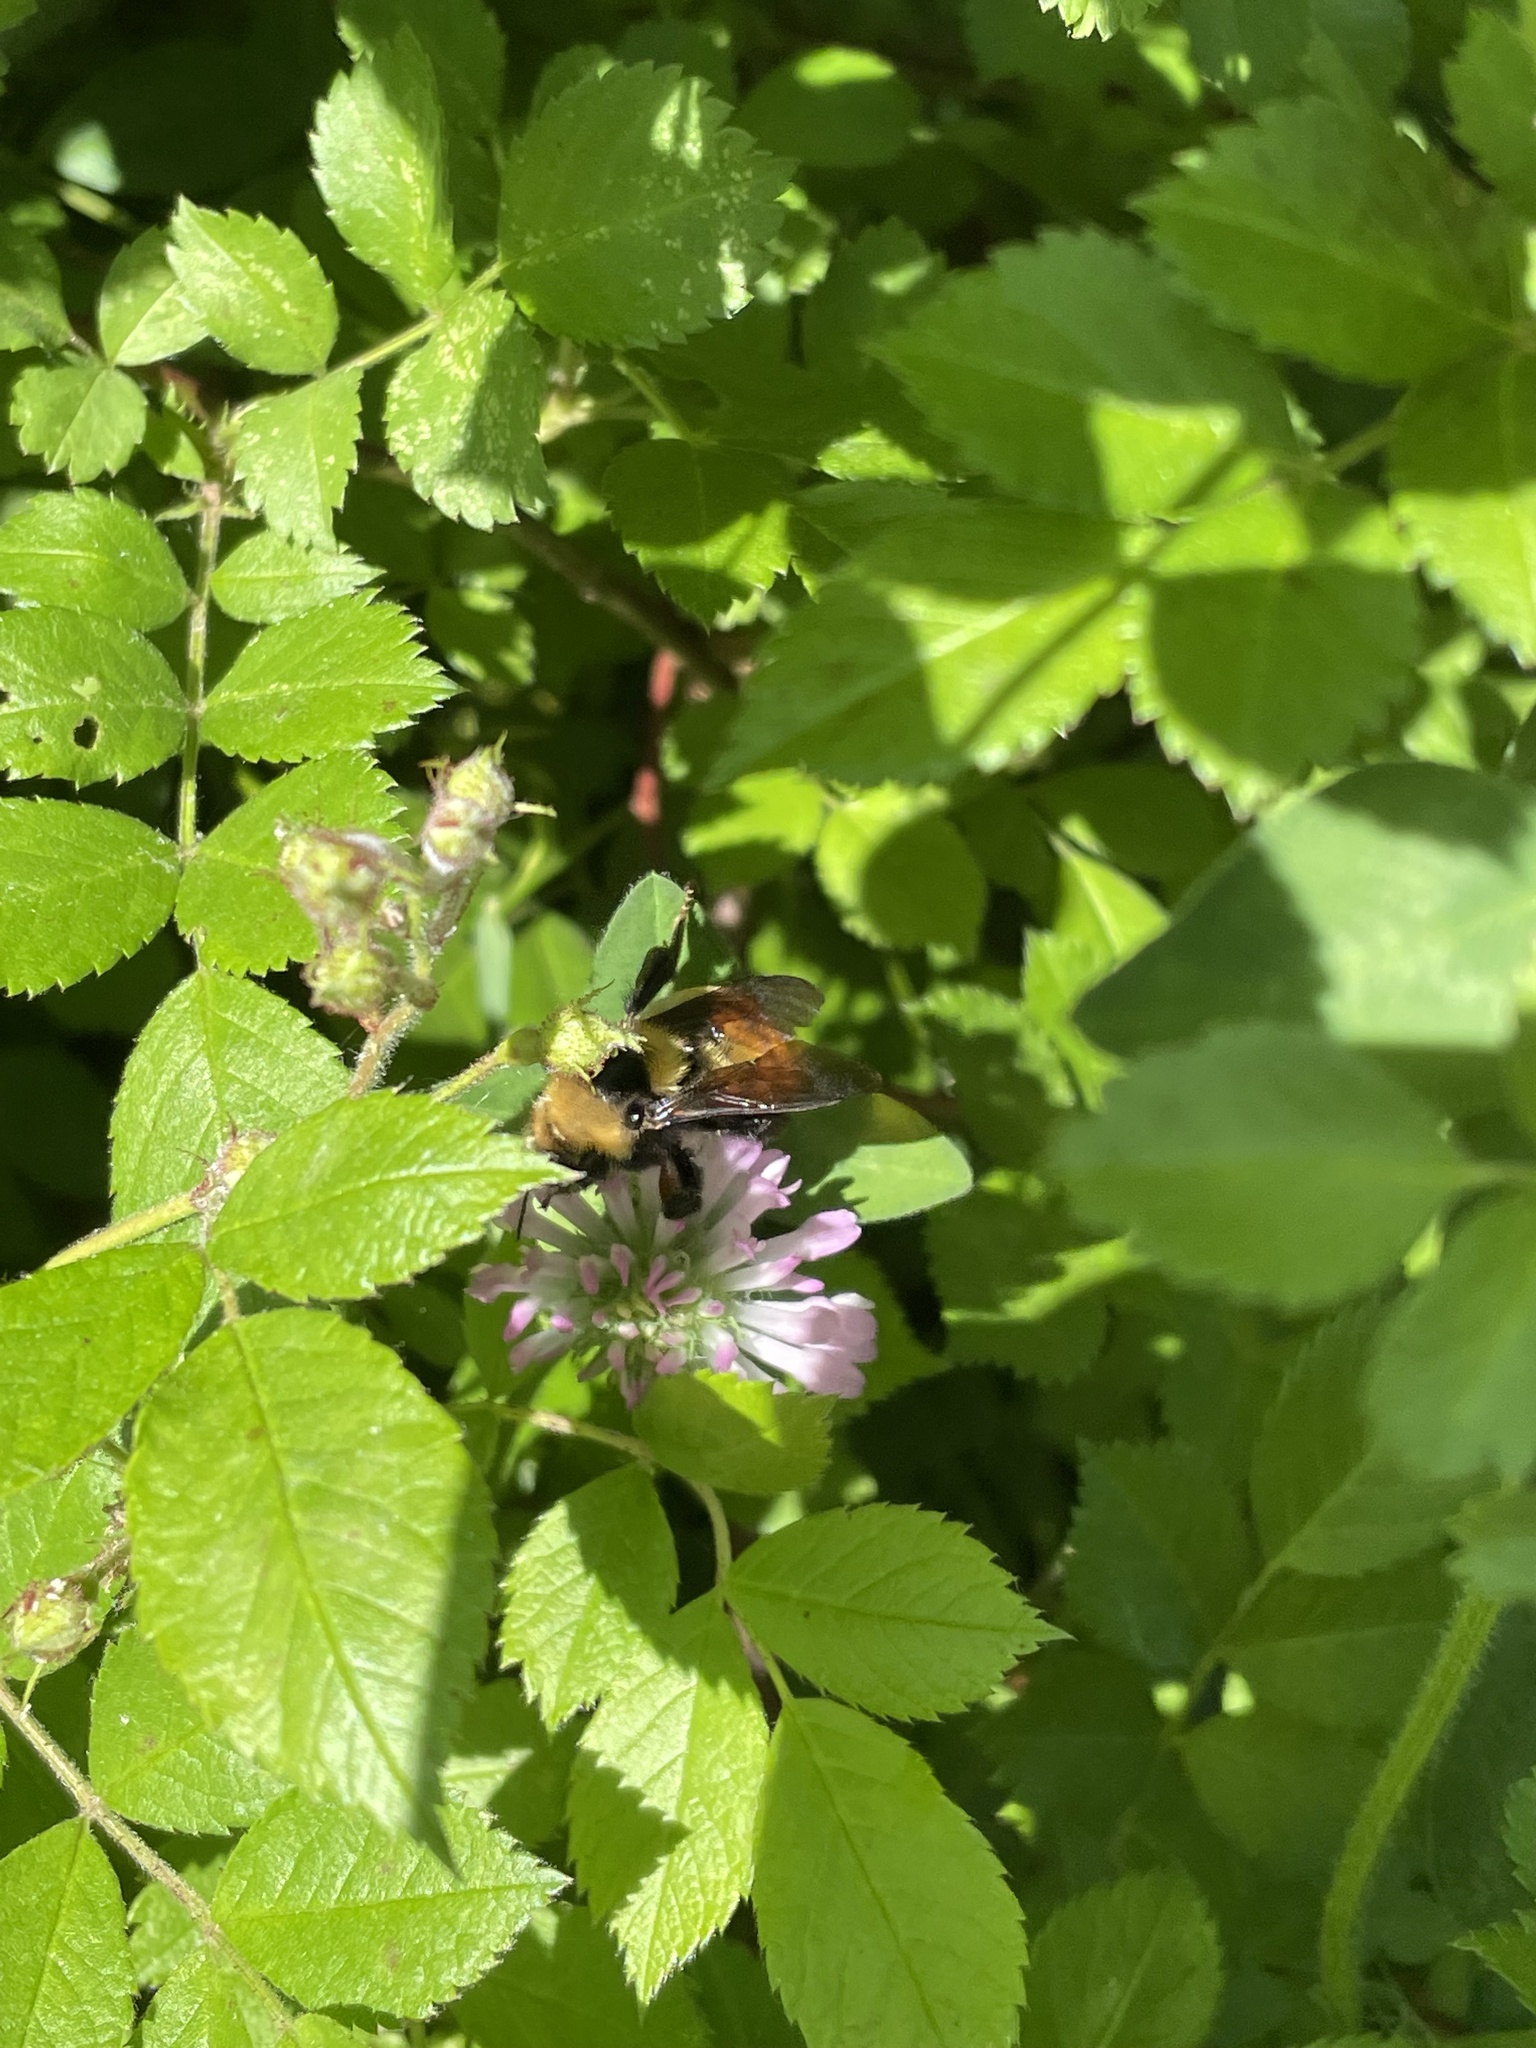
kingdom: Animalia
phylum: Arthropoda
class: Insecta
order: Hymenoptera
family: Apidae
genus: Bombus
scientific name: Bombus borealis
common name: Northern amber bumble bee
